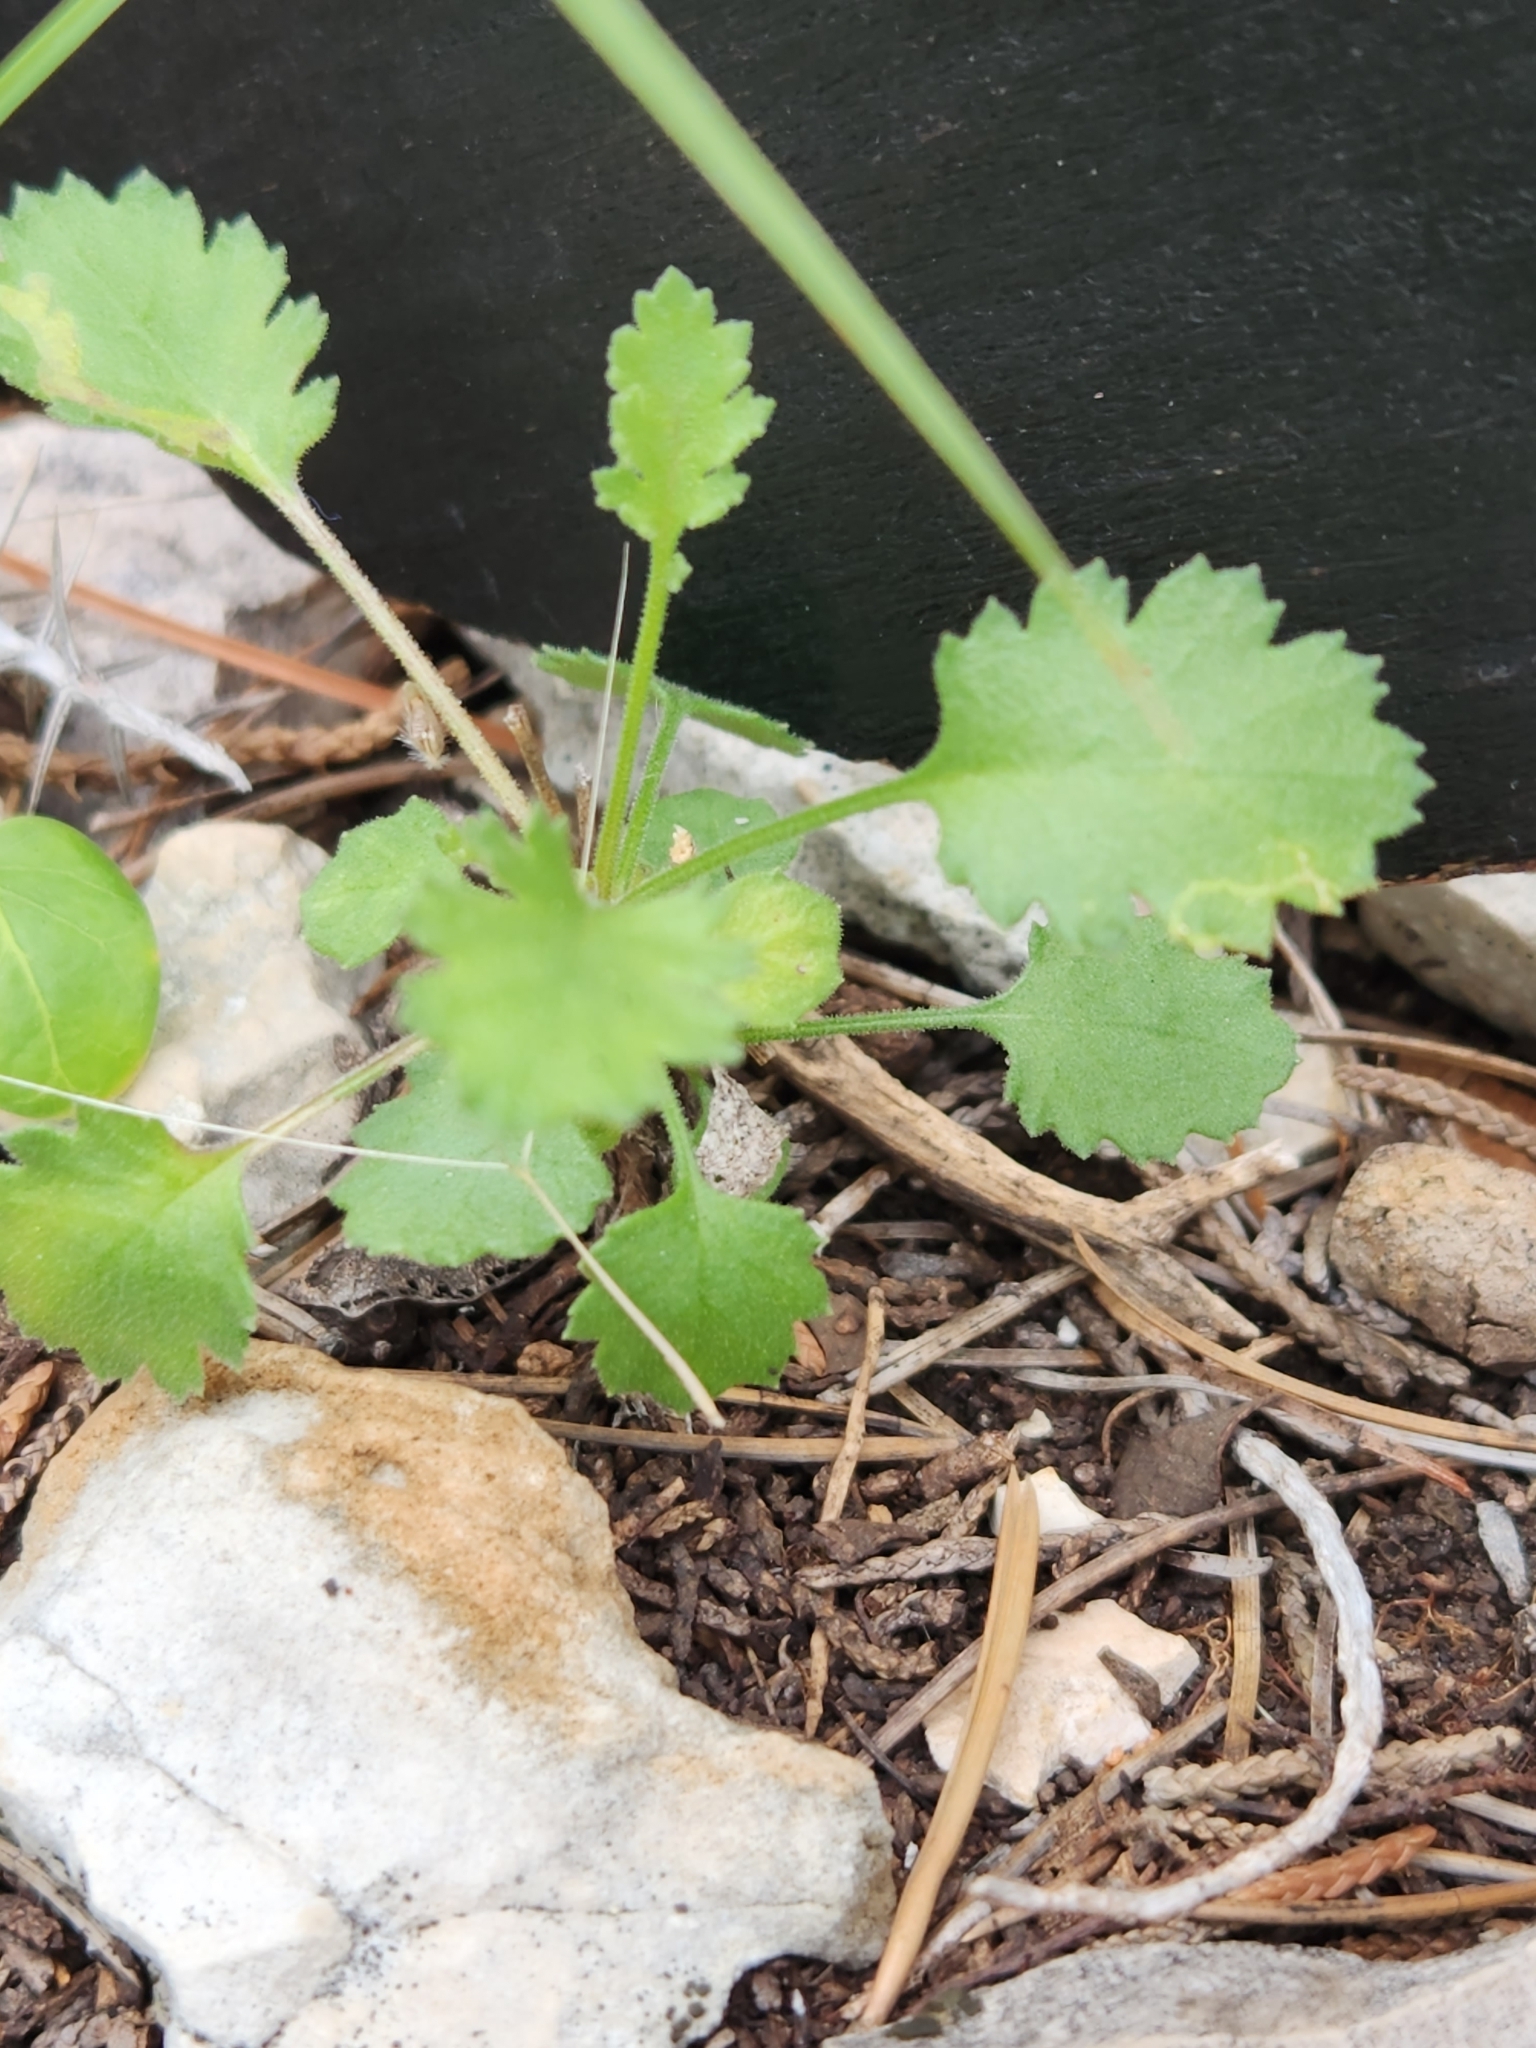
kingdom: Plantae
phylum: Tracheophyta
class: Magnoliopsida
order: Ericales
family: Polemoniaceae
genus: Giliastrum
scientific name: Giliastrum incisum
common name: Splitleaf gilia
